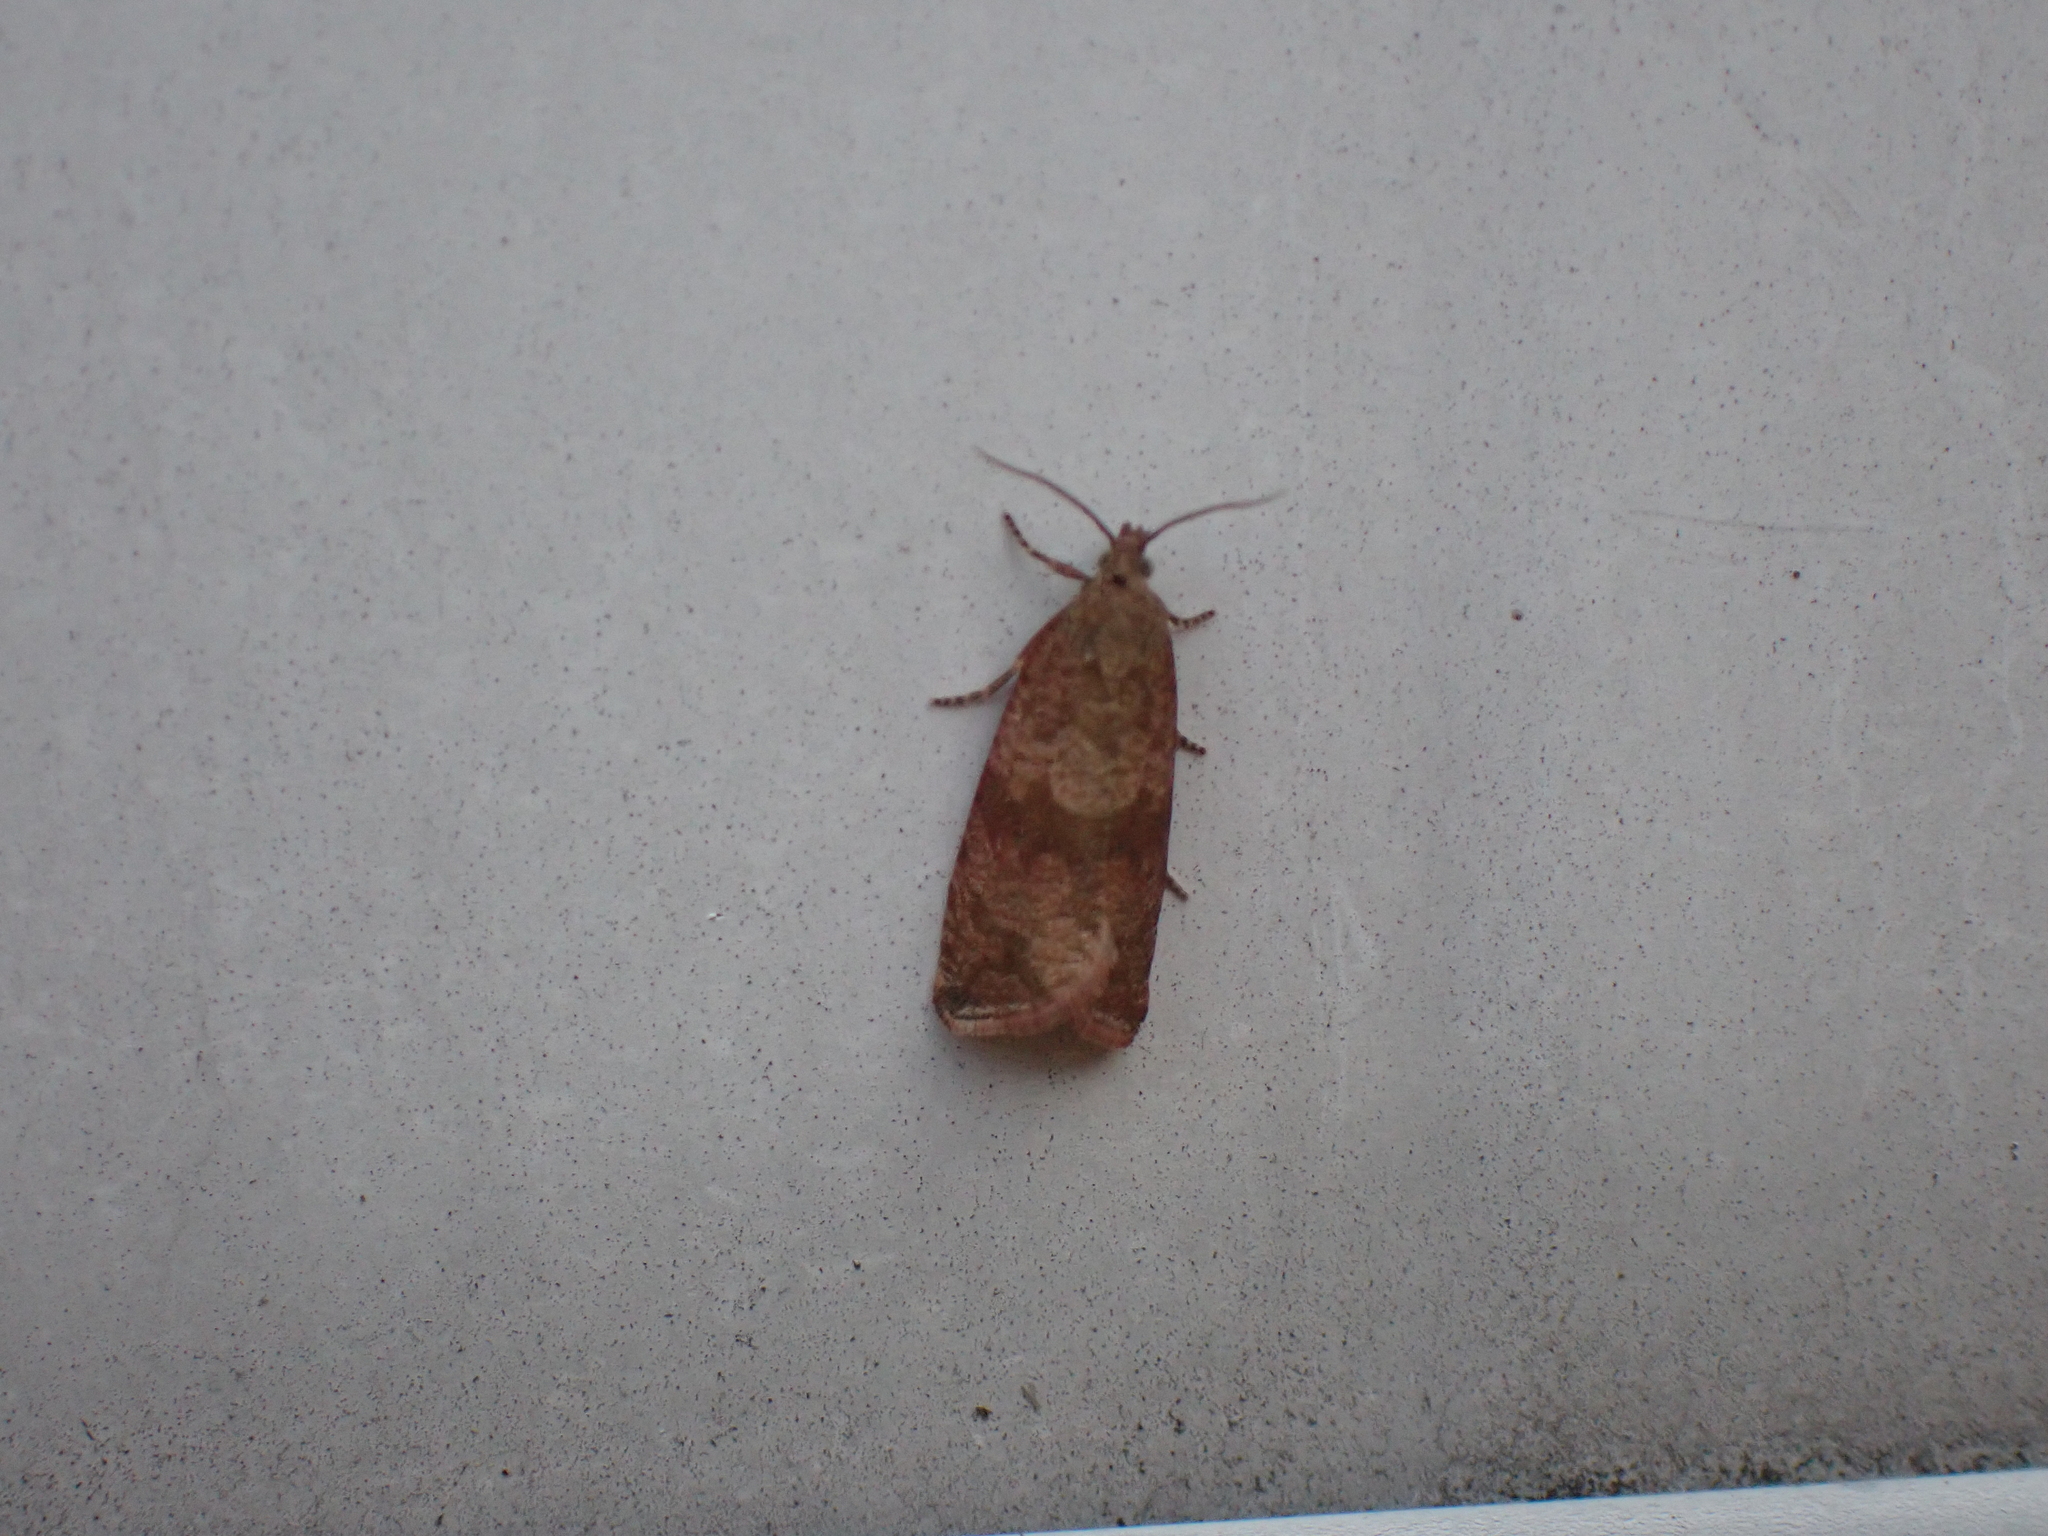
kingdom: Animalia
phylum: Arthropoda
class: Insecta
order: Lepidoptera
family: Tortricidae
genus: Celypha
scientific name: Celypha striana
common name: Barred marble
